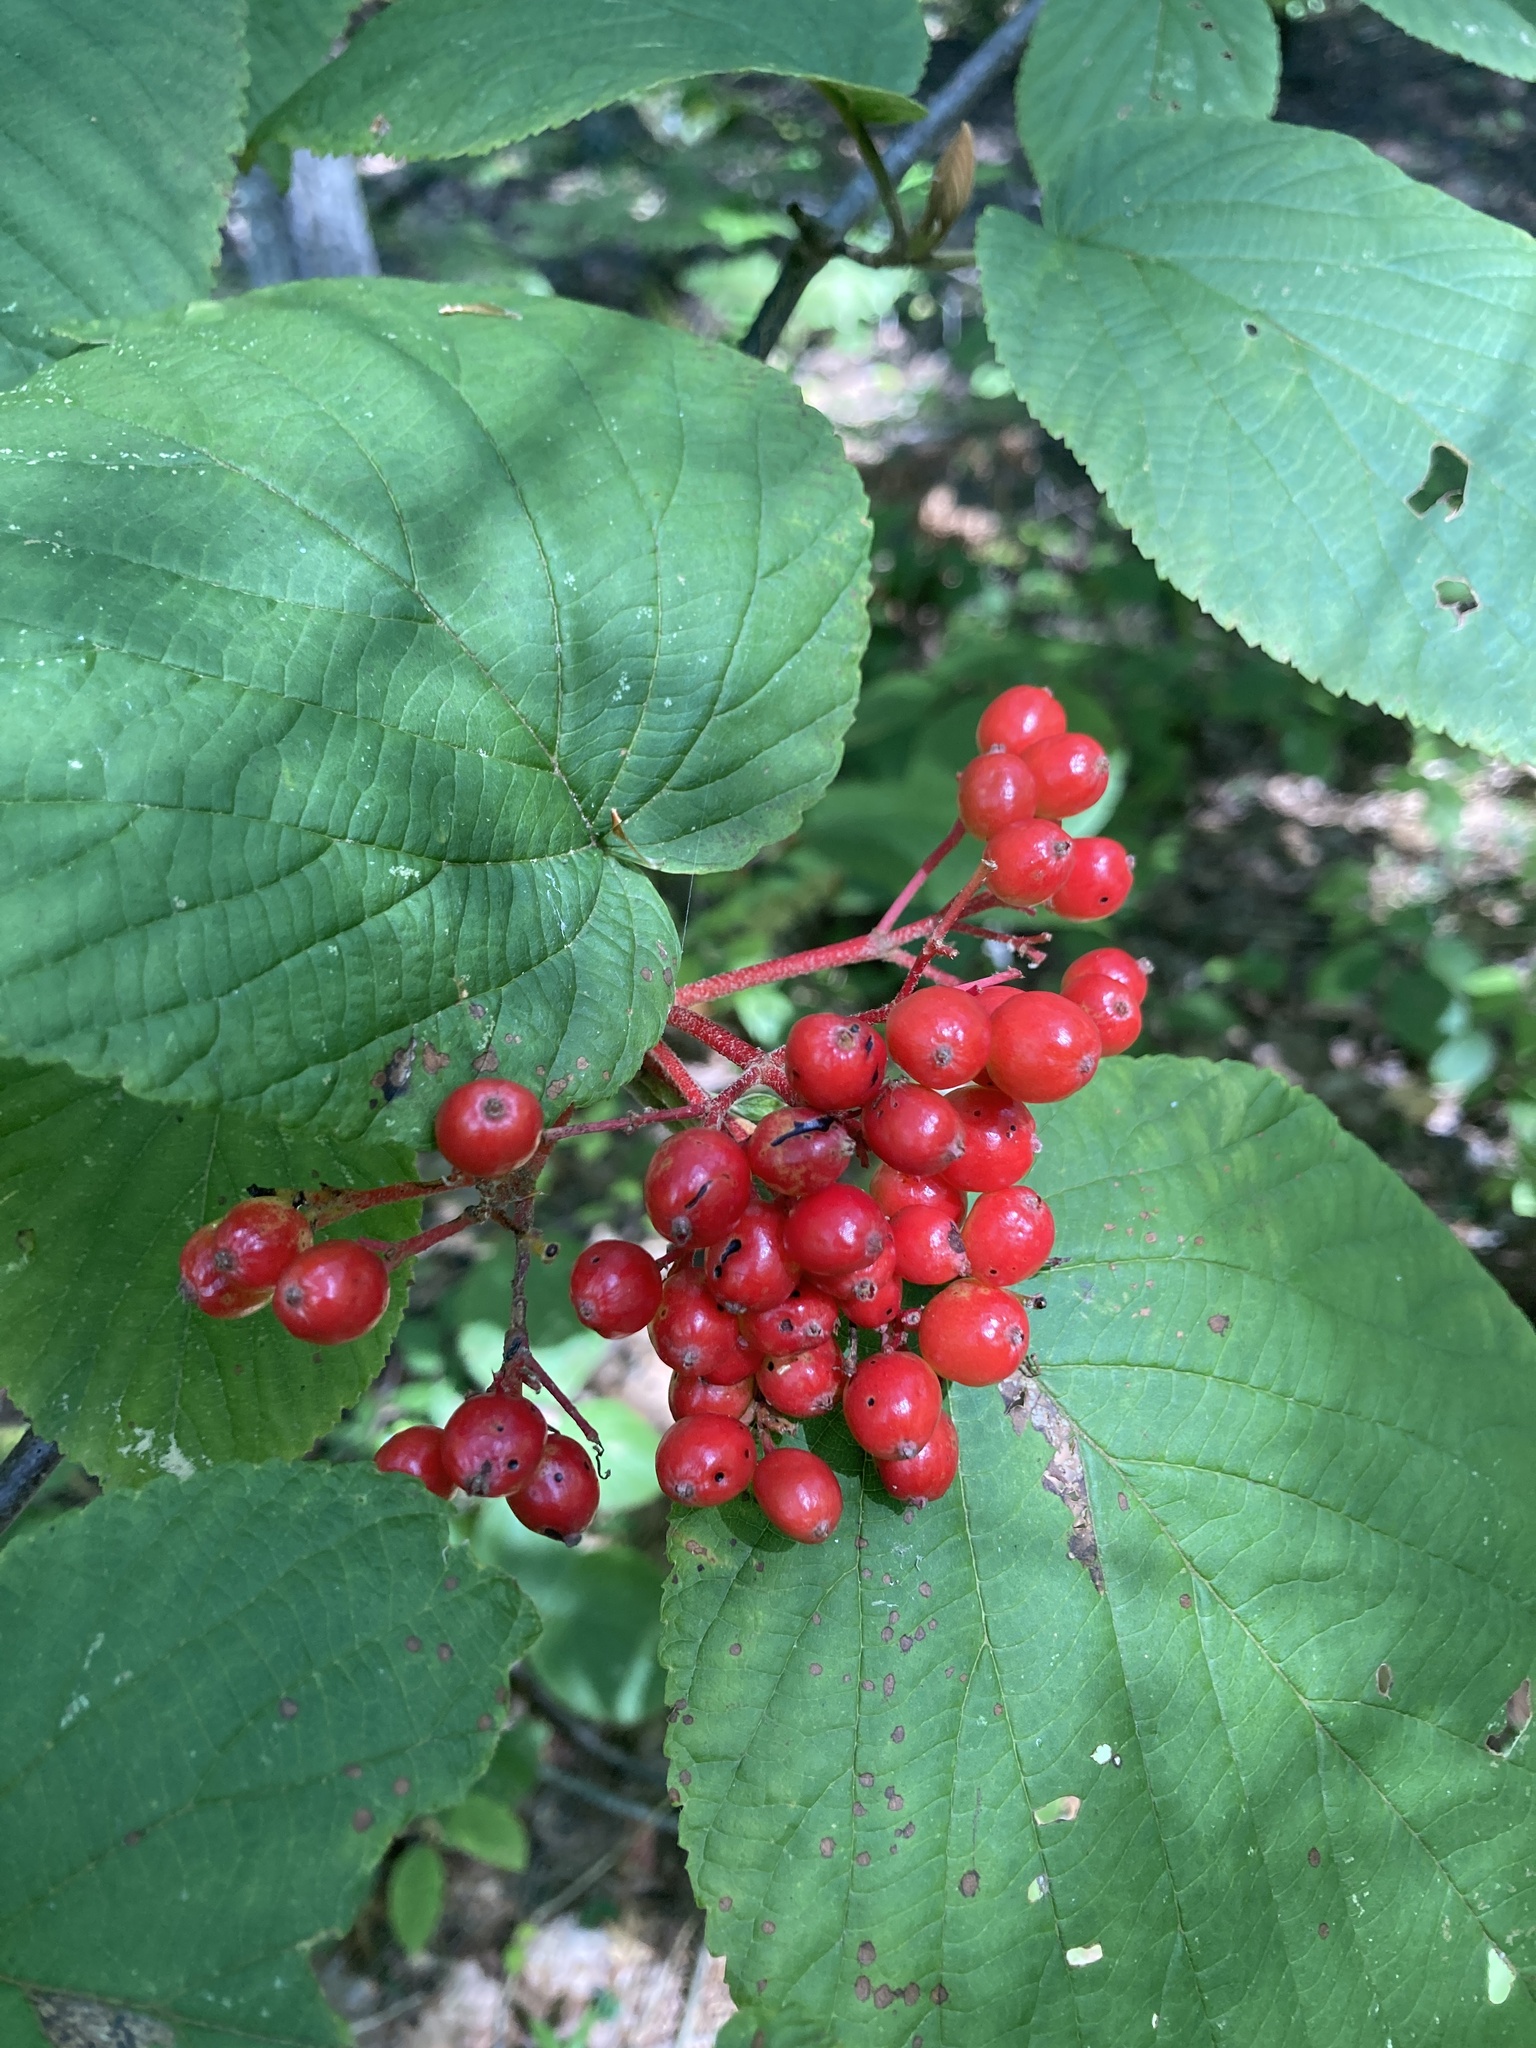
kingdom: Plantae
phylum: Tracheophyta
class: Magnoliopsida
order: Dipsacales
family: Viburnaceae
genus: Viburnum
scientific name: Viburnum lantanoides
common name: Hobblebush
